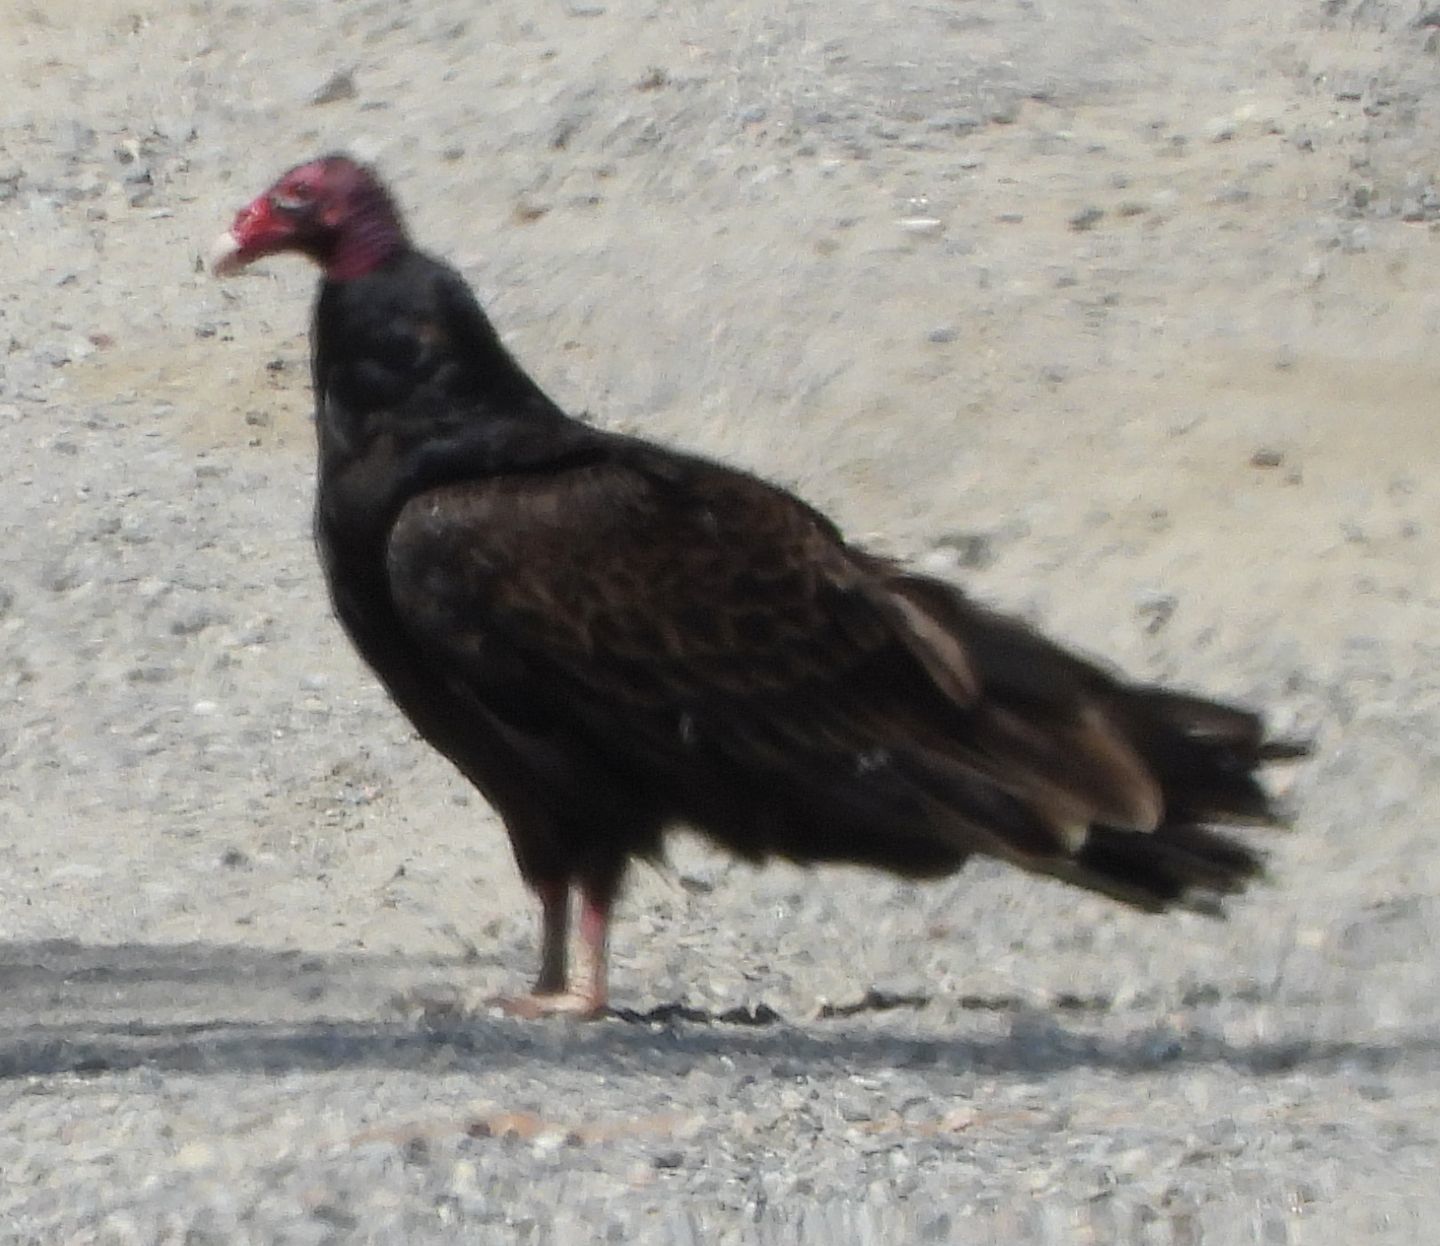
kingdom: Animalia
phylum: Chordata
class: Aves
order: Accipitriformes
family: Cathartidae
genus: Cathartes
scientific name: Cathartes aura
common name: Turkey vulture
